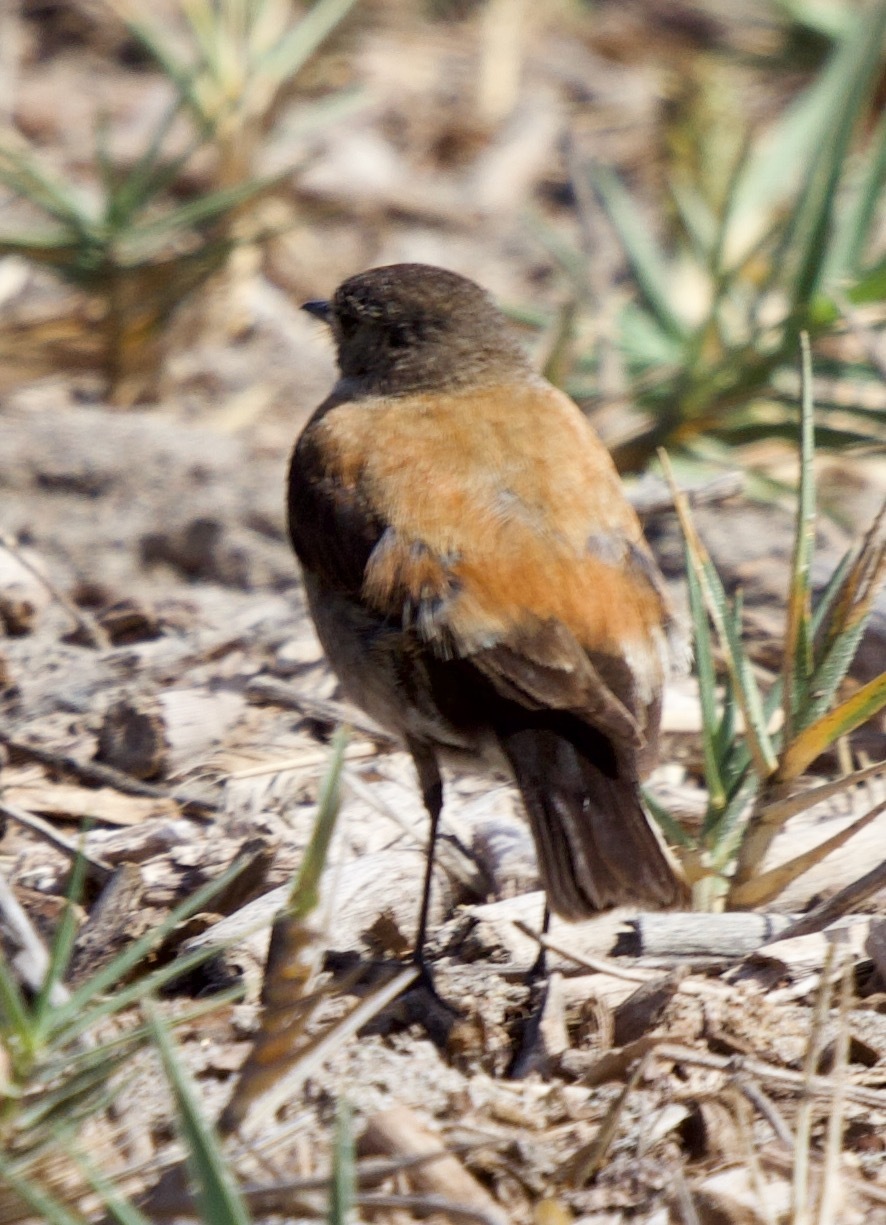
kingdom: Animalia
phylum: Chordata
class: Aves
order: Passeriformes
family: Tyrannidae
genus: Lessonia
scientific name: Lessonia rufa
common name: Austral negrito
